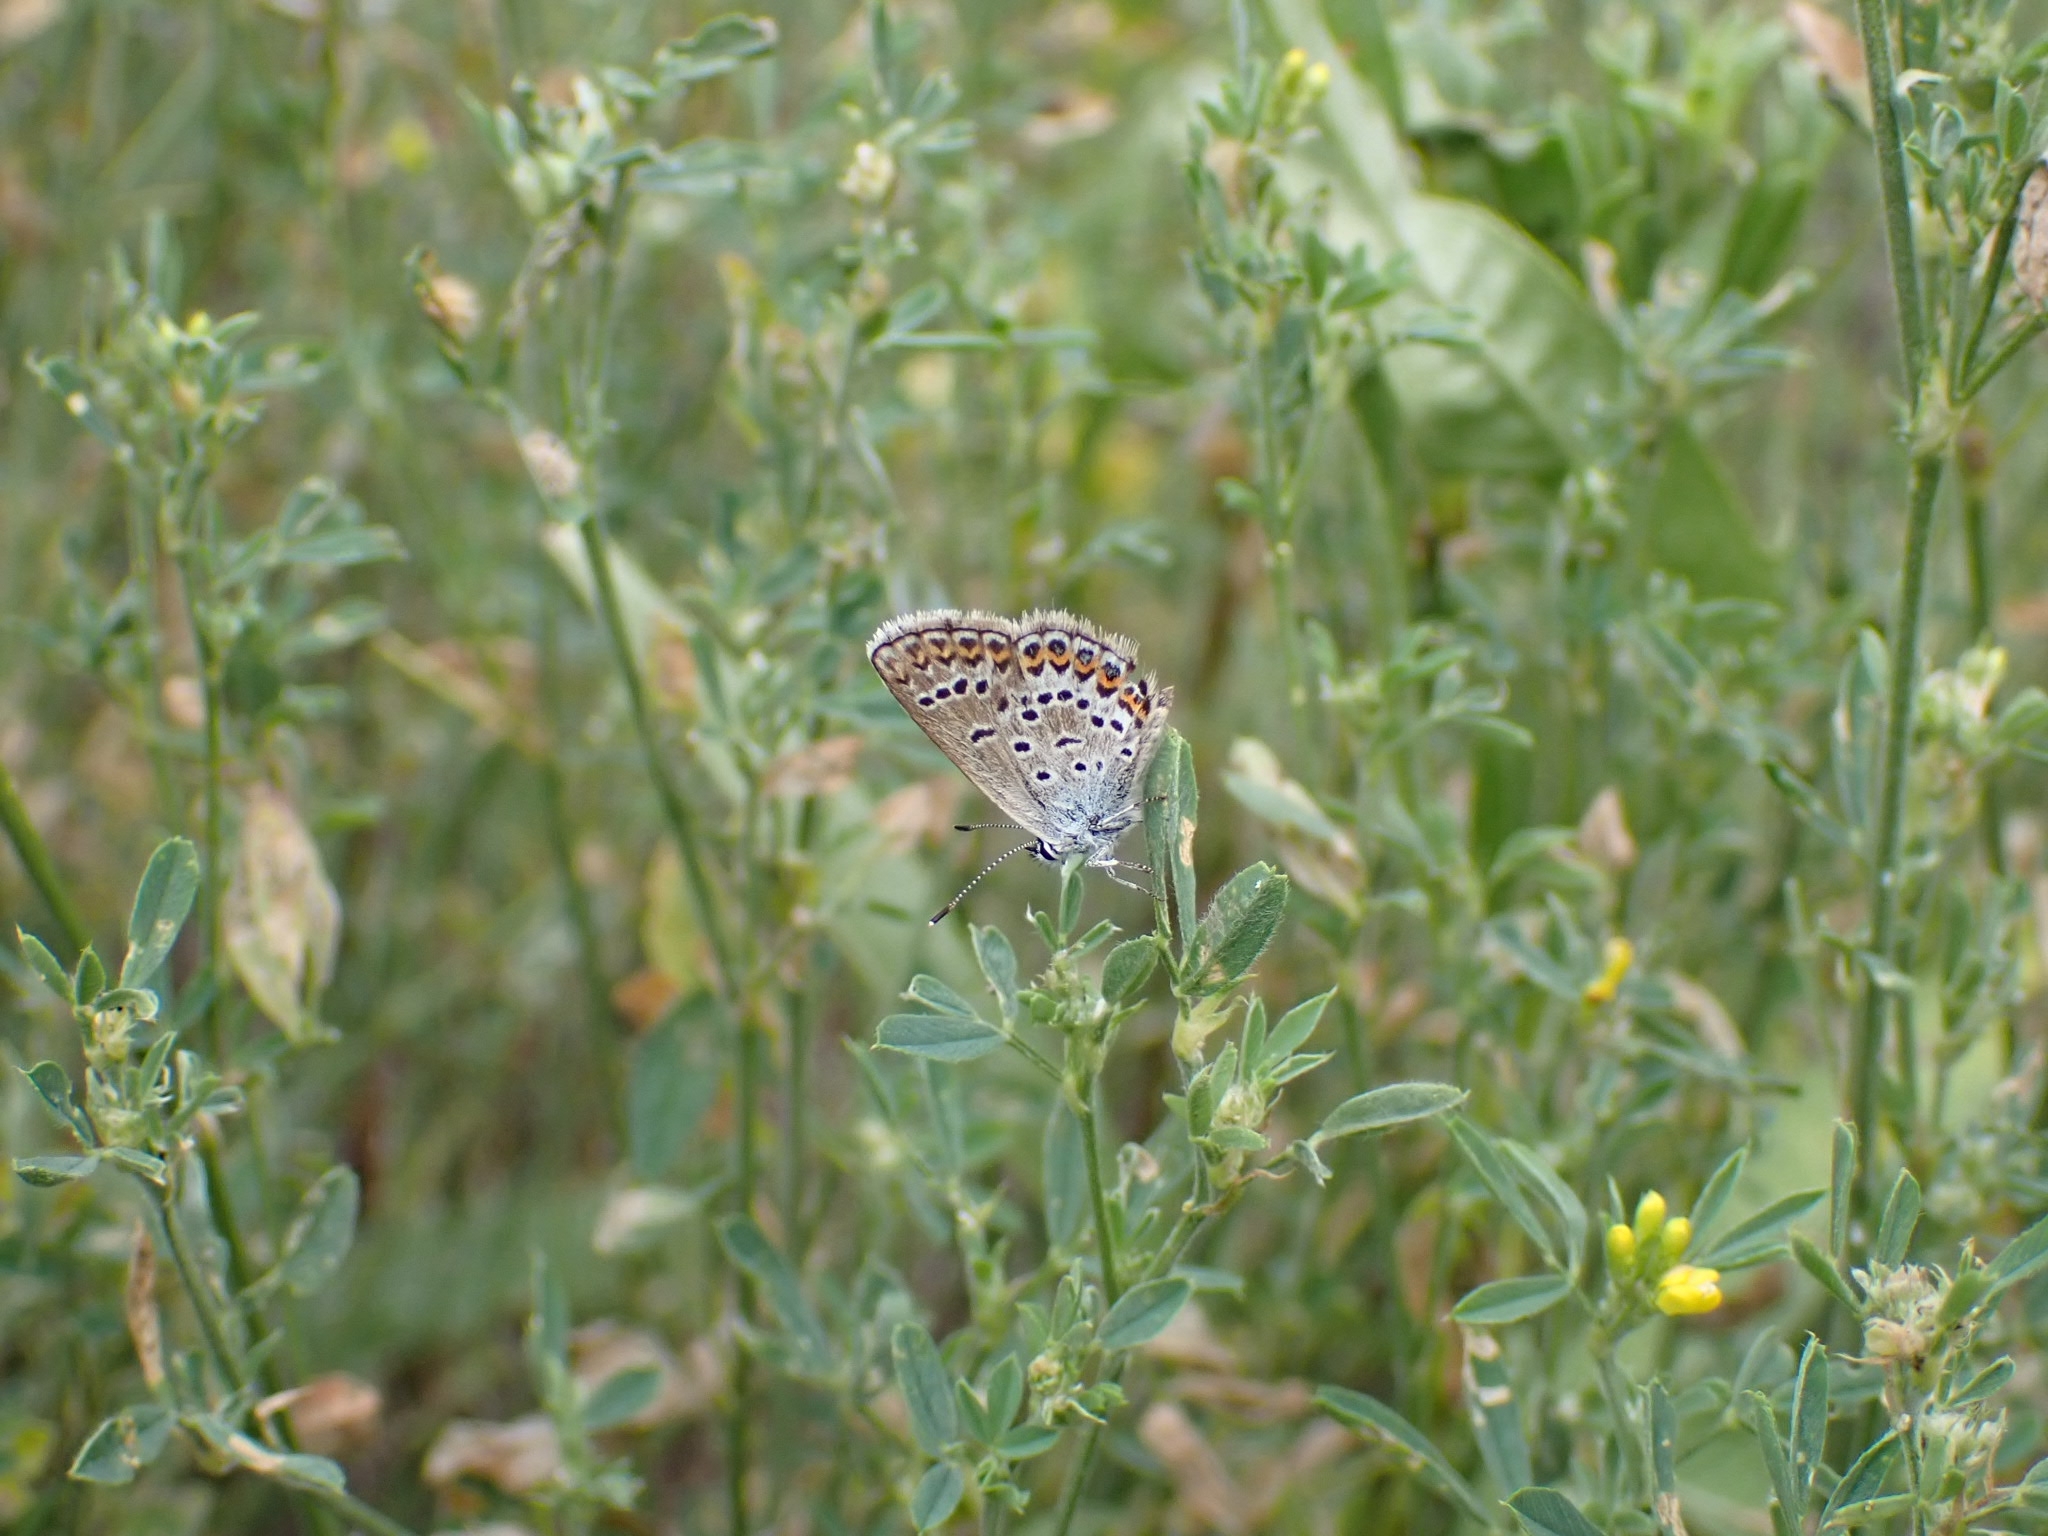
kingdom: Animalia
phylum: Arthropoda
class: Insecta
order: Lepidoptera
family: Lycaenidae
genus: Plebejus
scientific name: Plebejus argus
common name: Silver-studded blue
